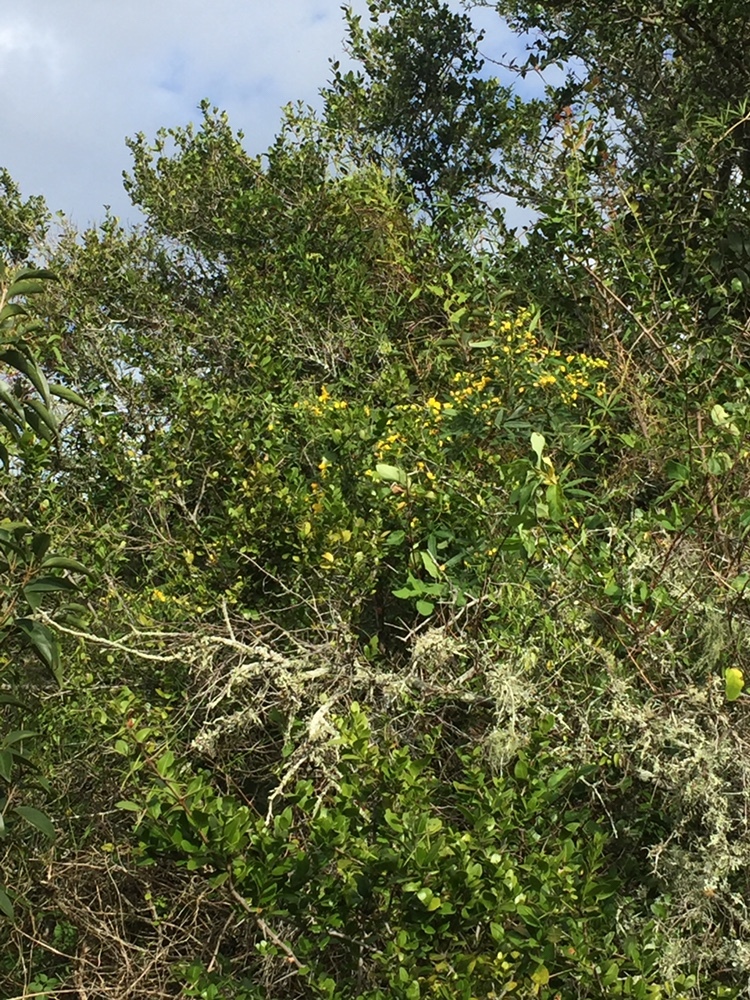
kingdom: Plantae
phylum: Tracheophyta
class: Magnoliopsida
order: Fabales
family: Fabaceae
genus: Senna
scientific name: Senna corymbosa
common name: Argentine senna
